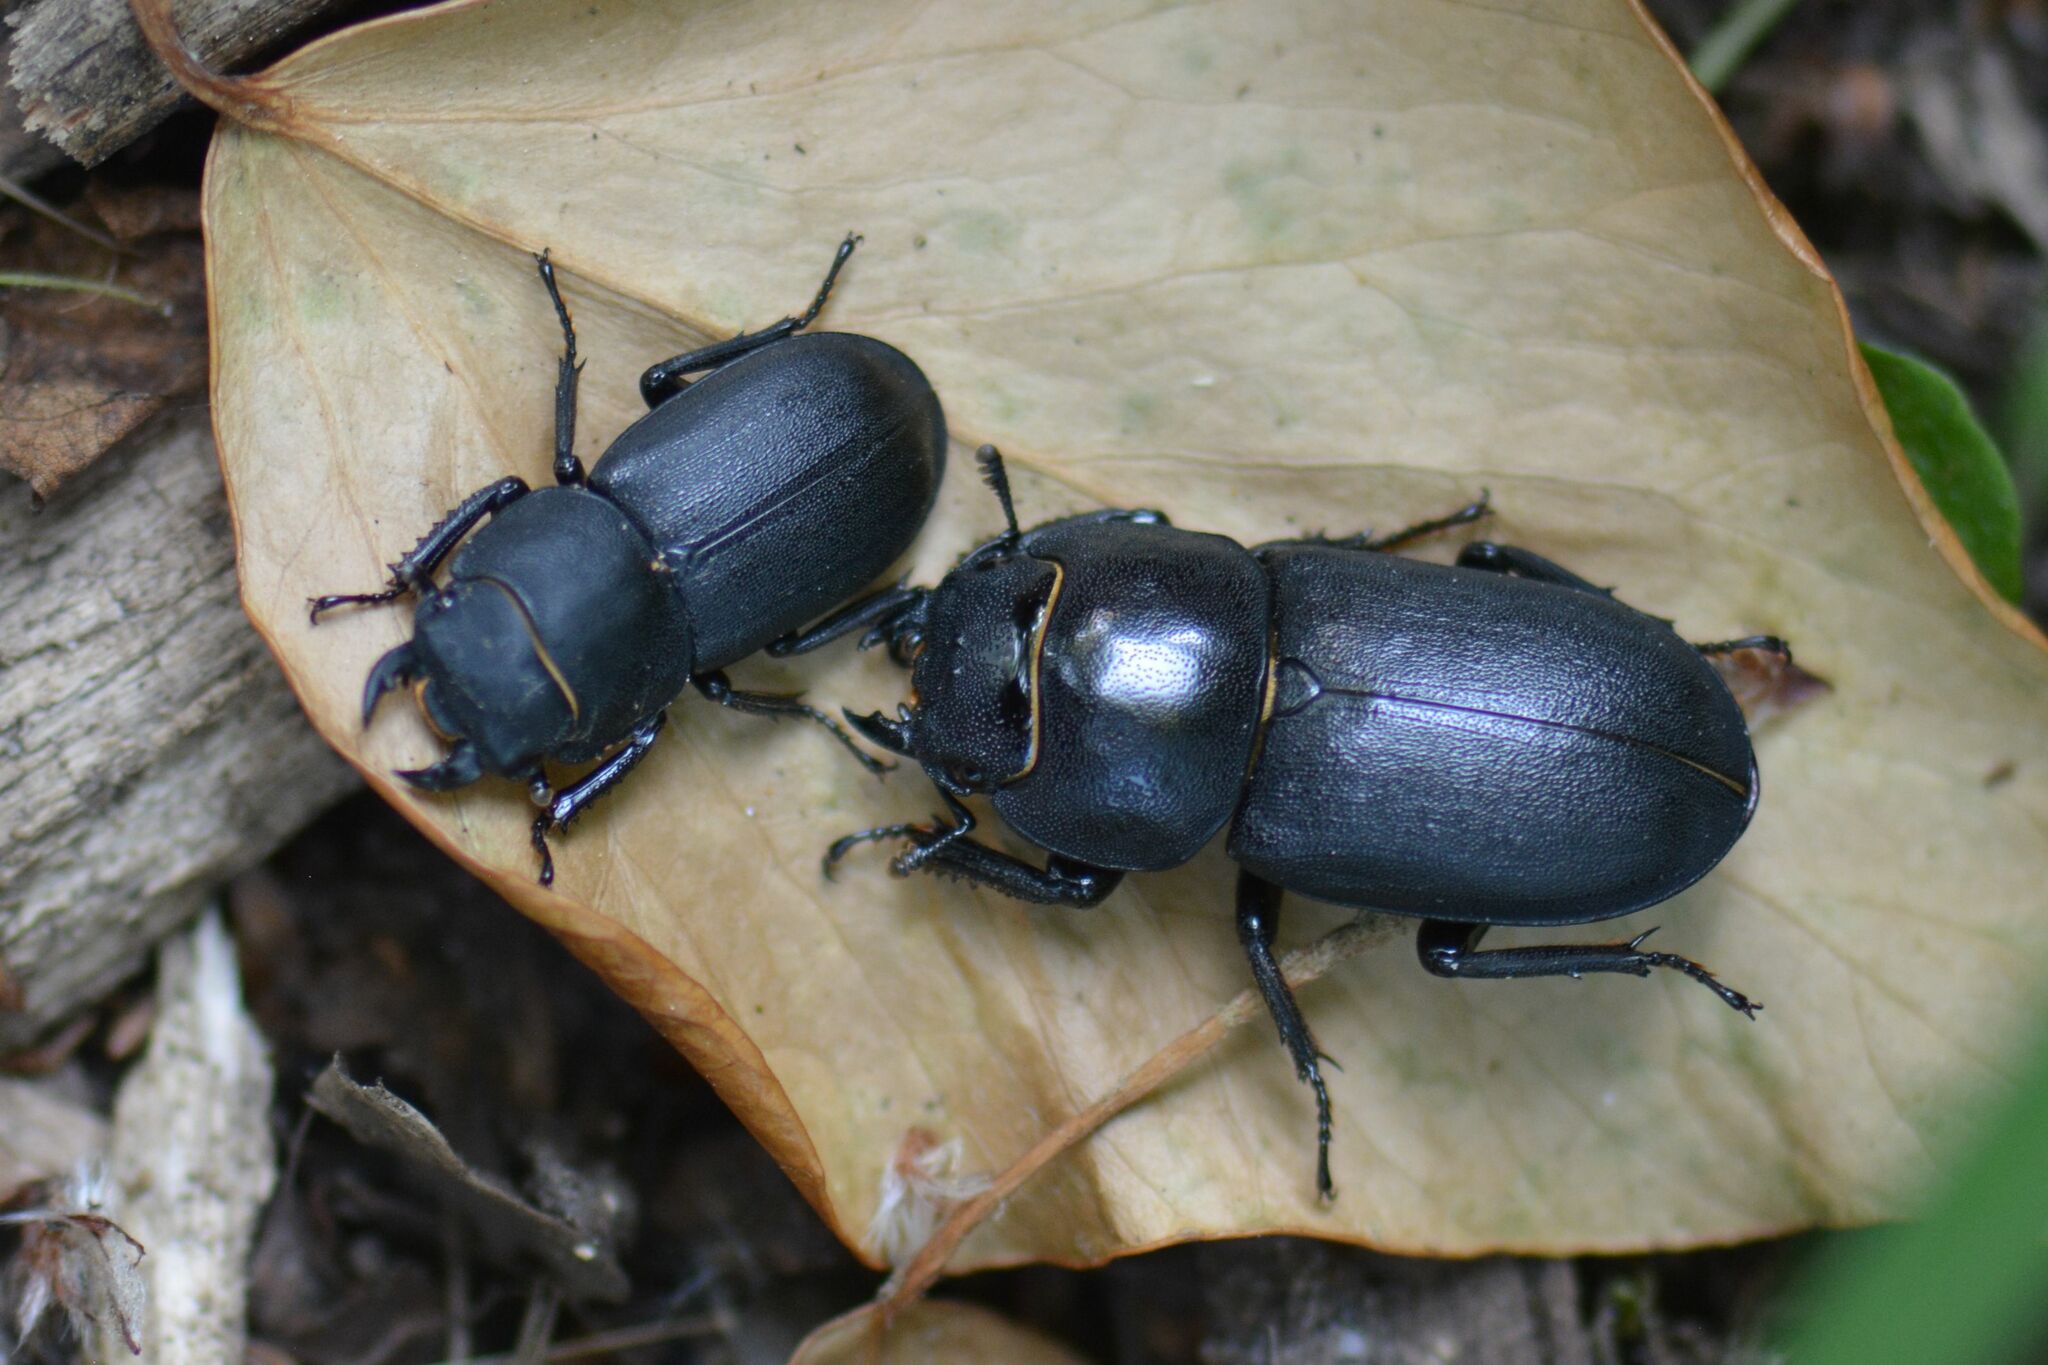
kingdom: Animalia
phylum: Arthropoda
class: Insecta
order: Coleoptera
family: Lucanidae
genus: Dorcus
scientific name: Dorcus parallelipipedus
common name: Lesser stag beetle
